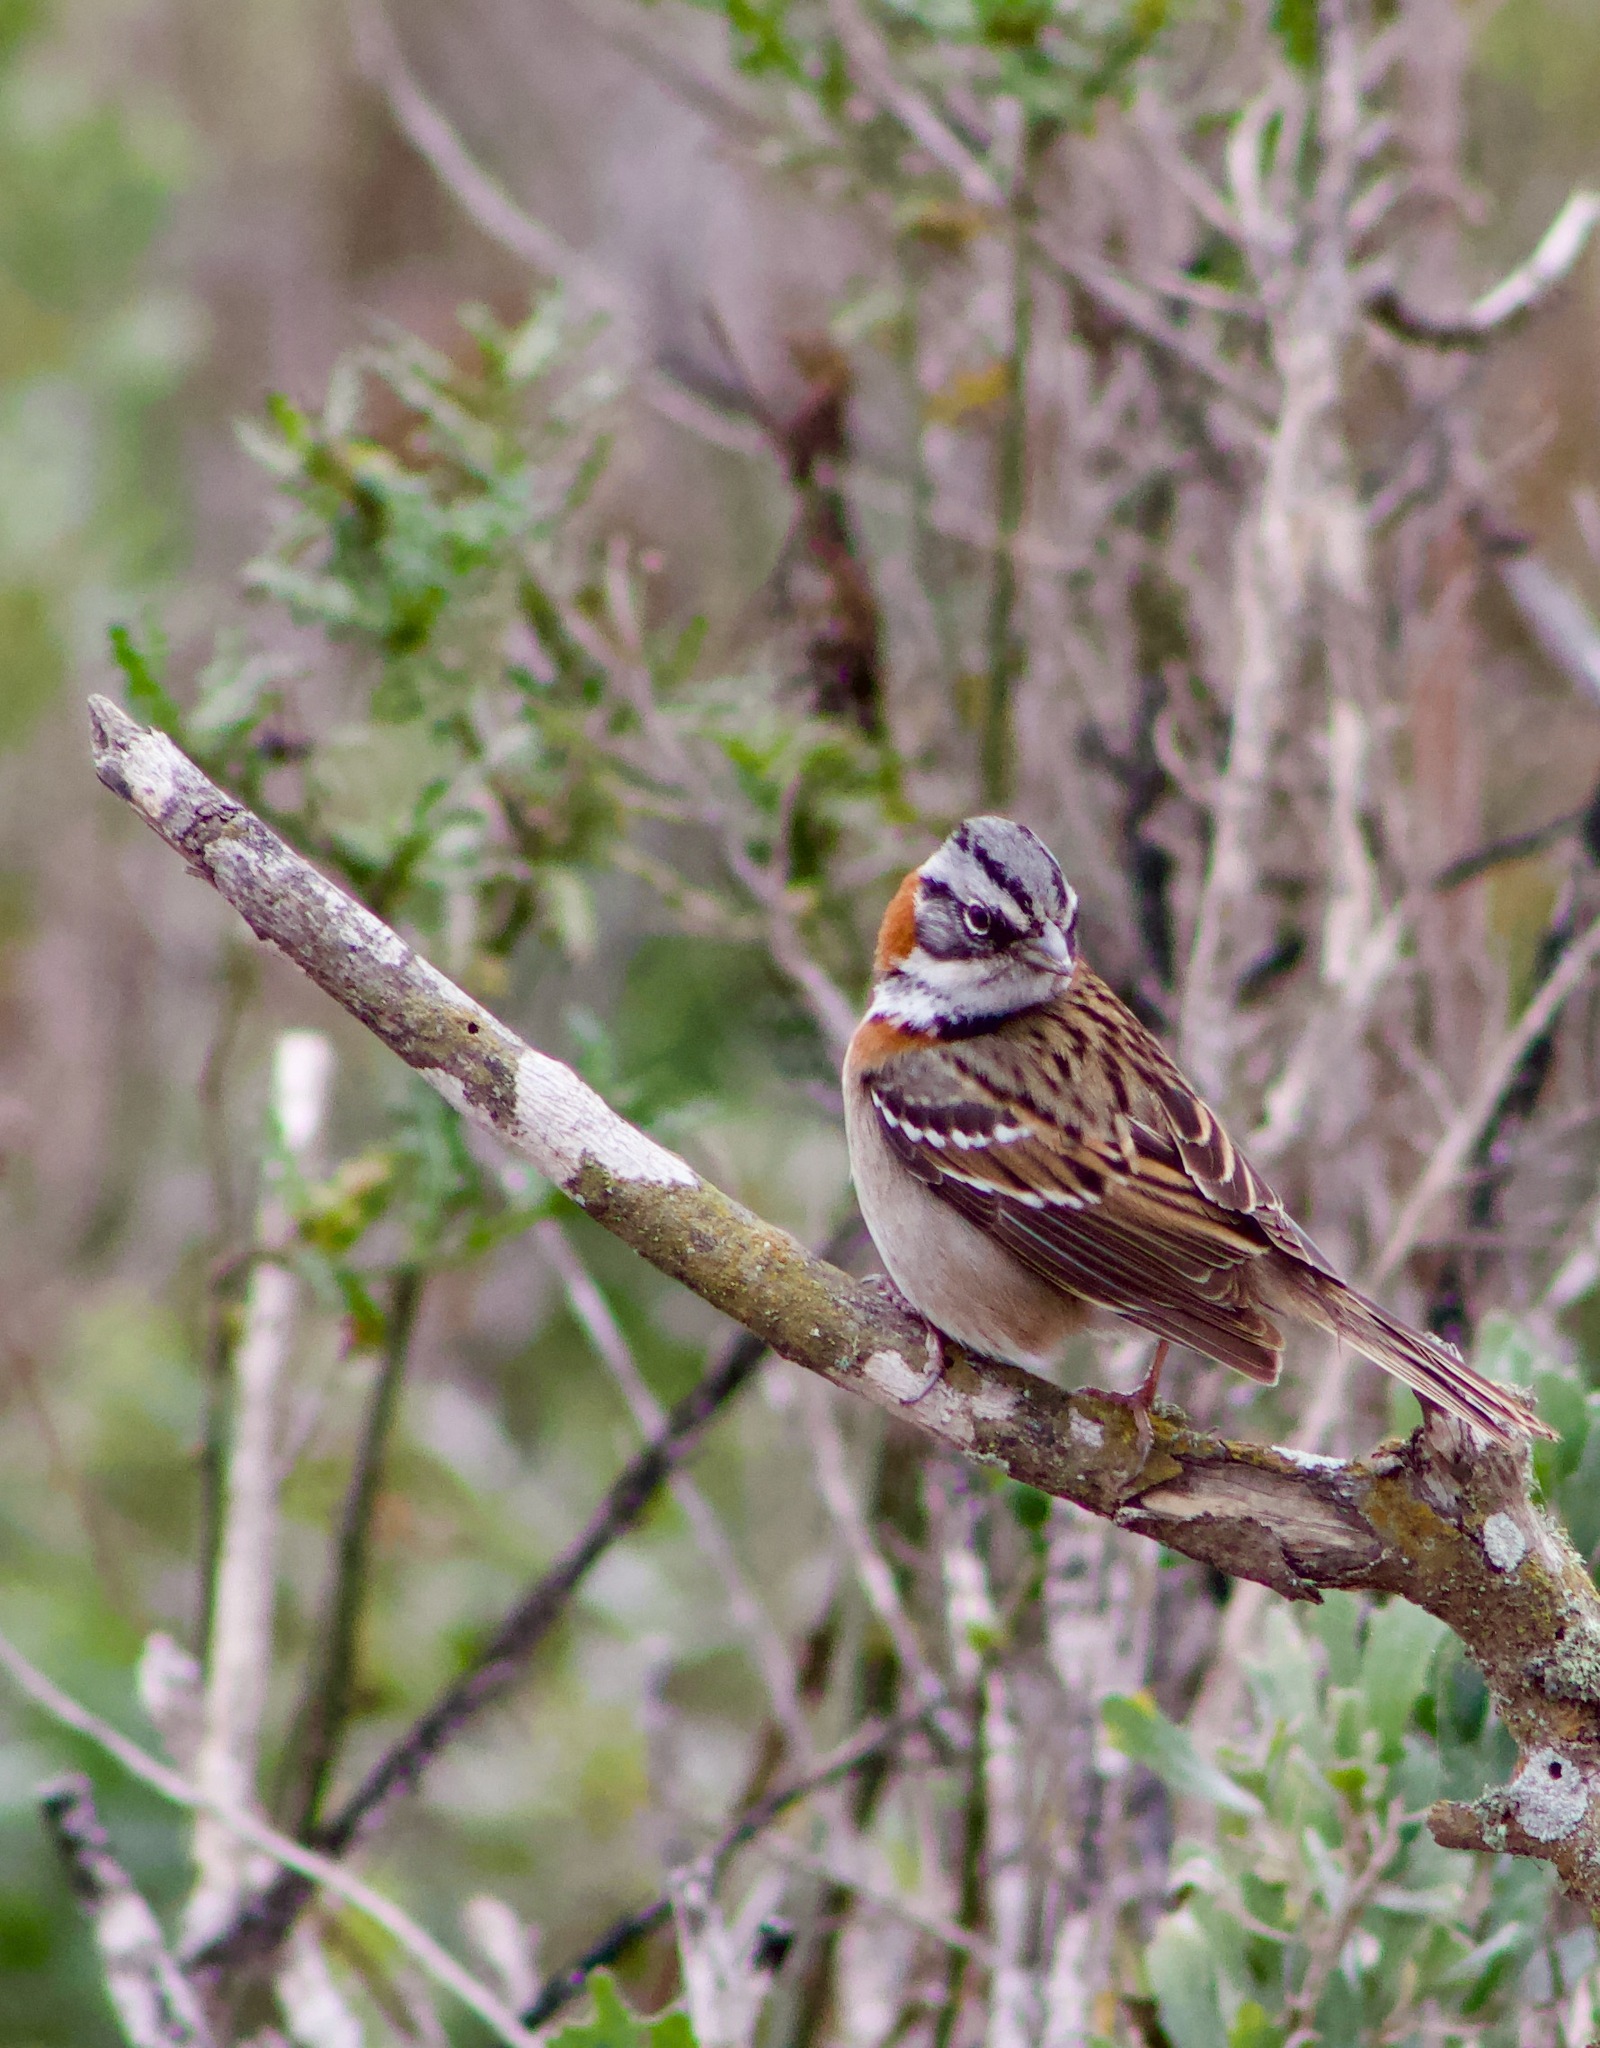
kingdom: Animalia
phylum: Chordata
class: Aves
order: Passeriformes
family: Passerellidae
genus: Zonotrichia
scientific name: Zonotrichia capensis
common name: Rufous-collared sparrow
